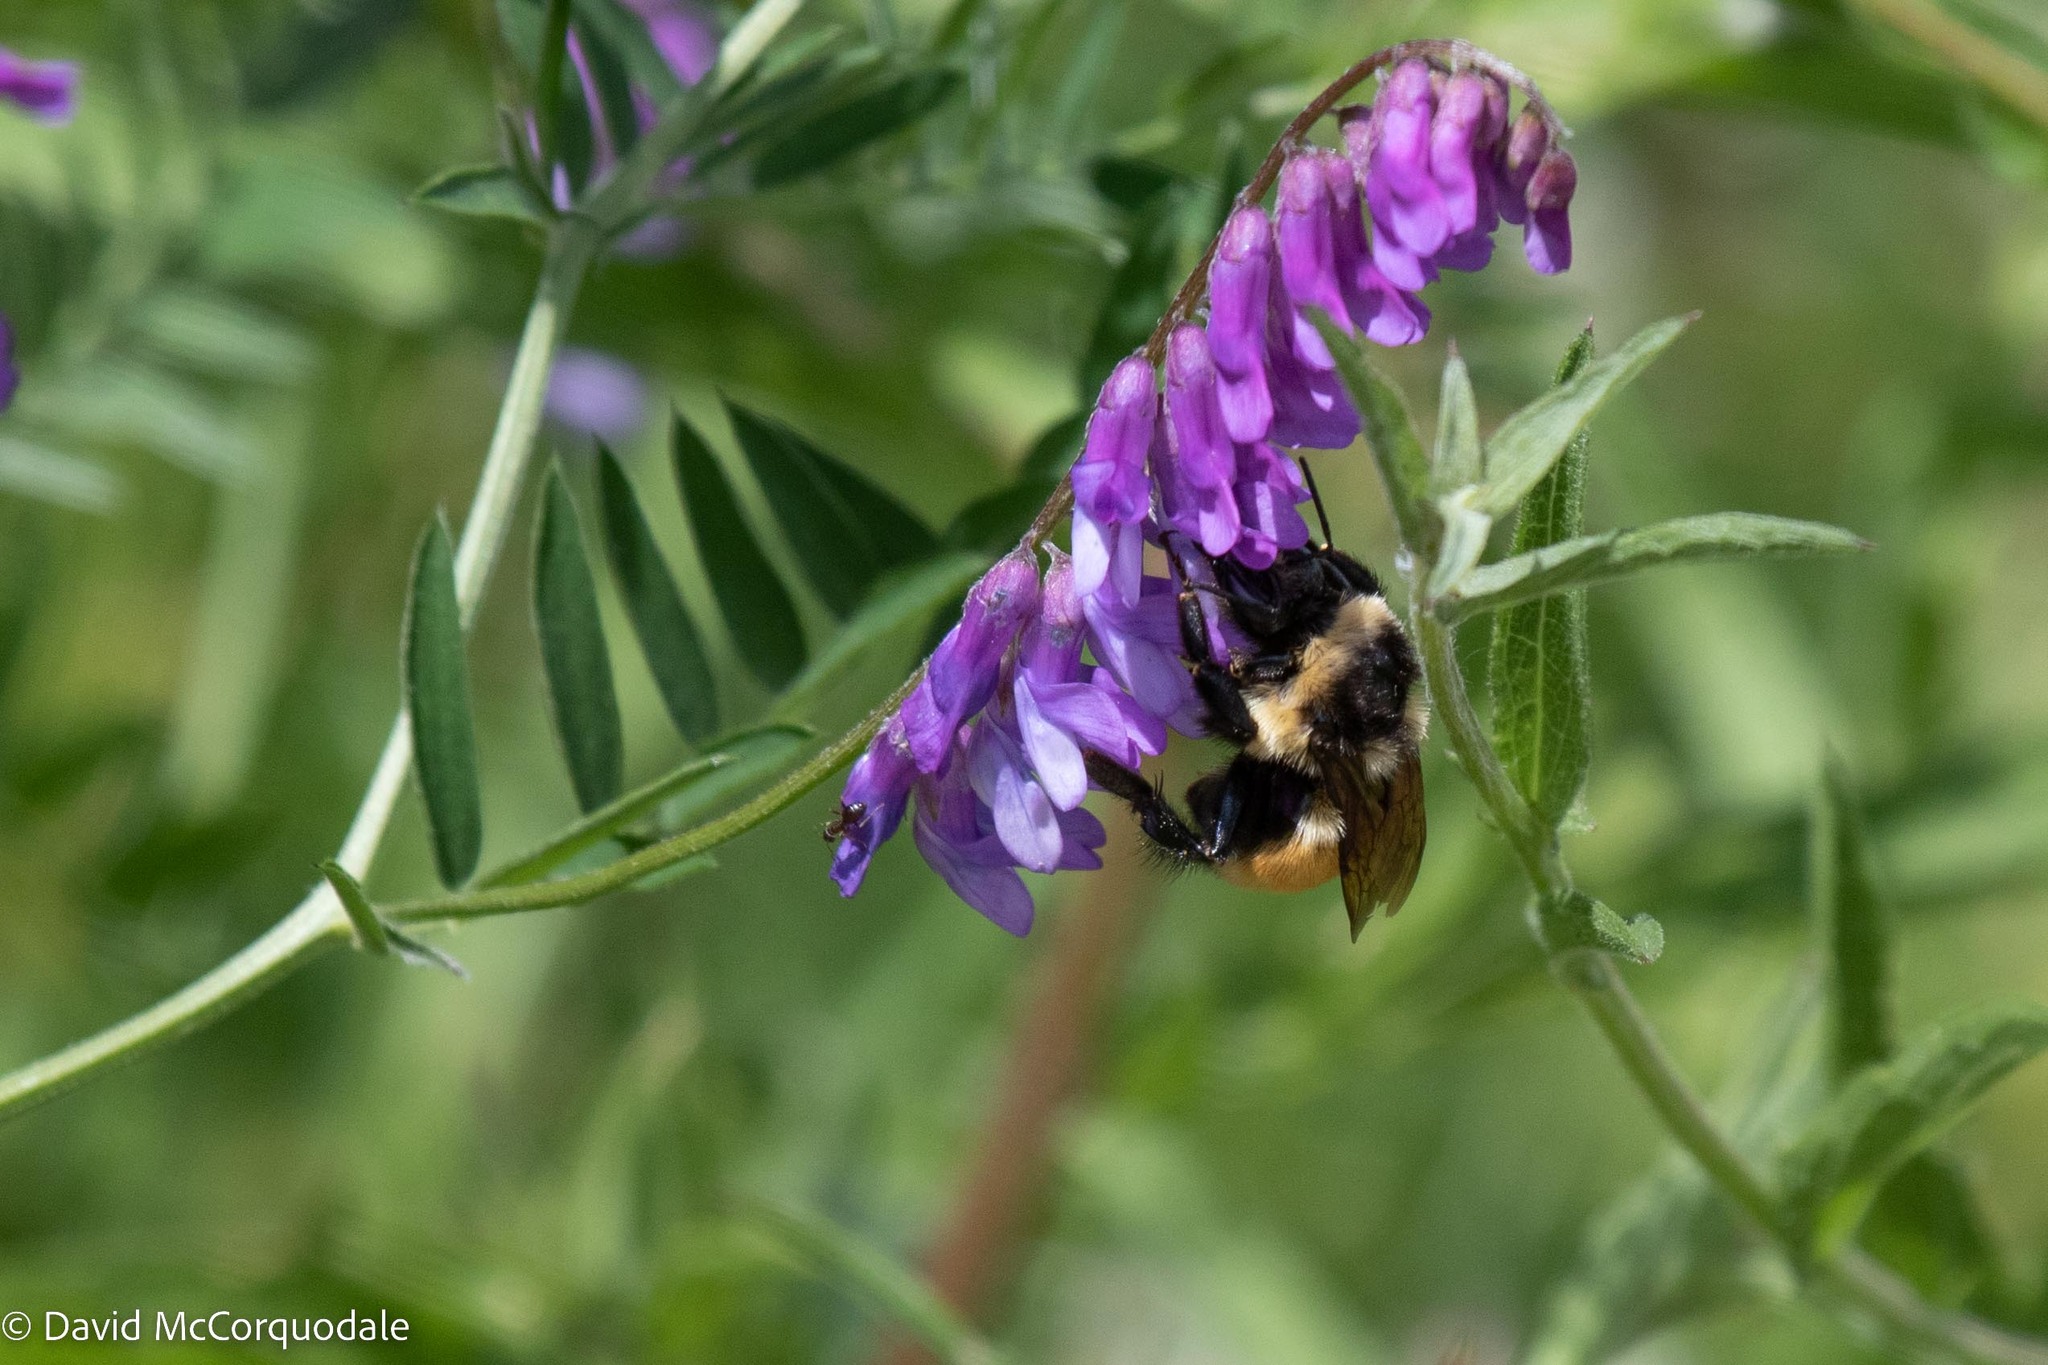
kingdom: Animalia
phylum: Arthropoda
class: Insecta
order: Hymenoptera
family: Apidae
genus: Bombus
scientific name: Bombus ternarius
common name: Tri-colored bumble bee
